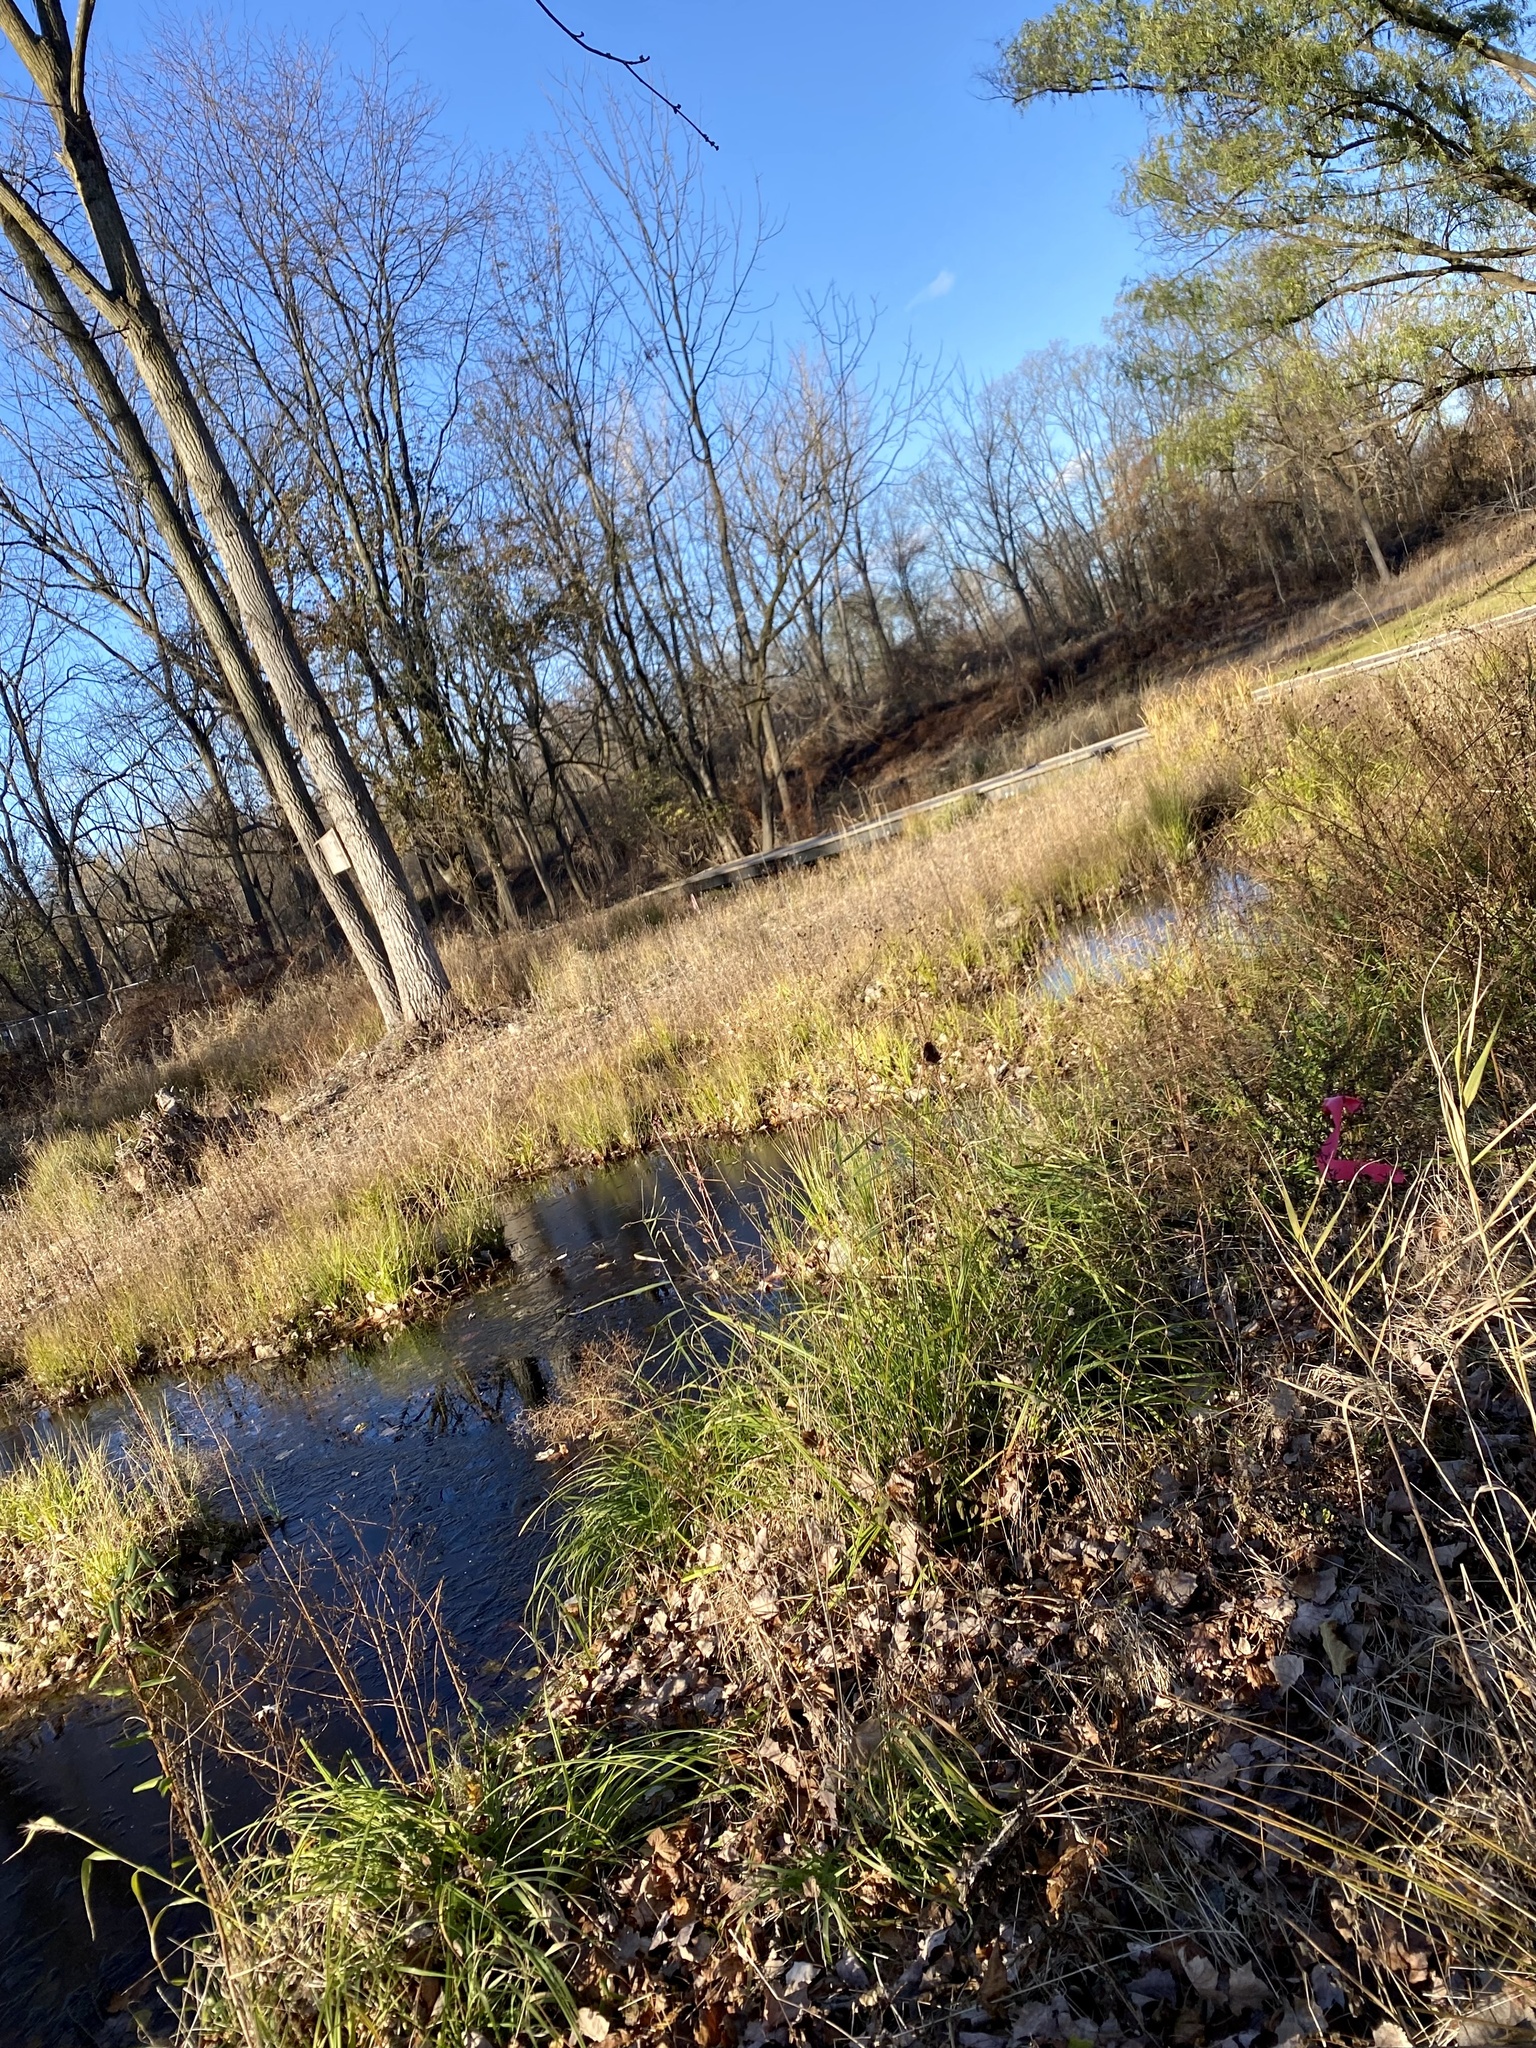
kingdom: Plantae
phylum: Tracheophyta
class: Magnoliopsida
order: Sapindales
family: Sapindaceae
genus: Acer
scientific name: Acer saccharinum
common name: Silver maple
